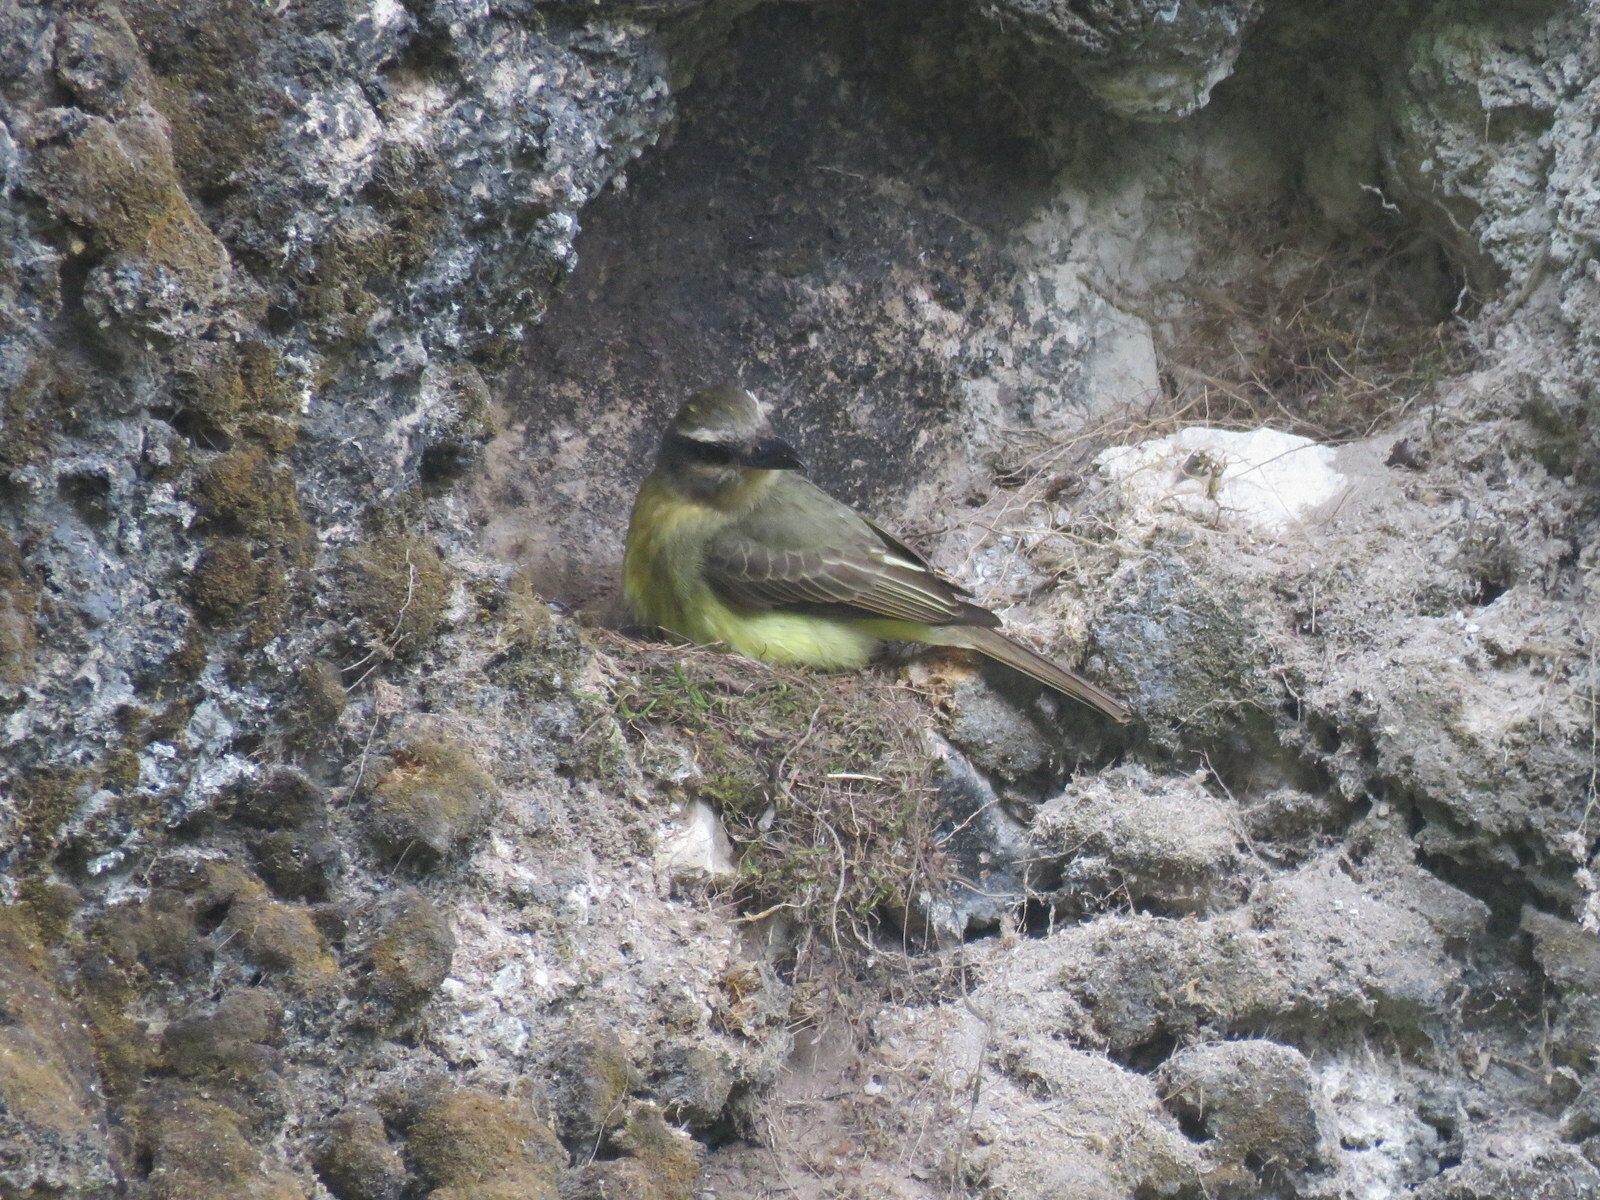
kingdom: Animalia
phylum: Chordata
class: Aves
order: Passeriformes
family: Tyrannidae
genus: Myiodynastes
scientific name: Myiodynastes chrysocephalus
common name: Golden-crowned flycatcher
